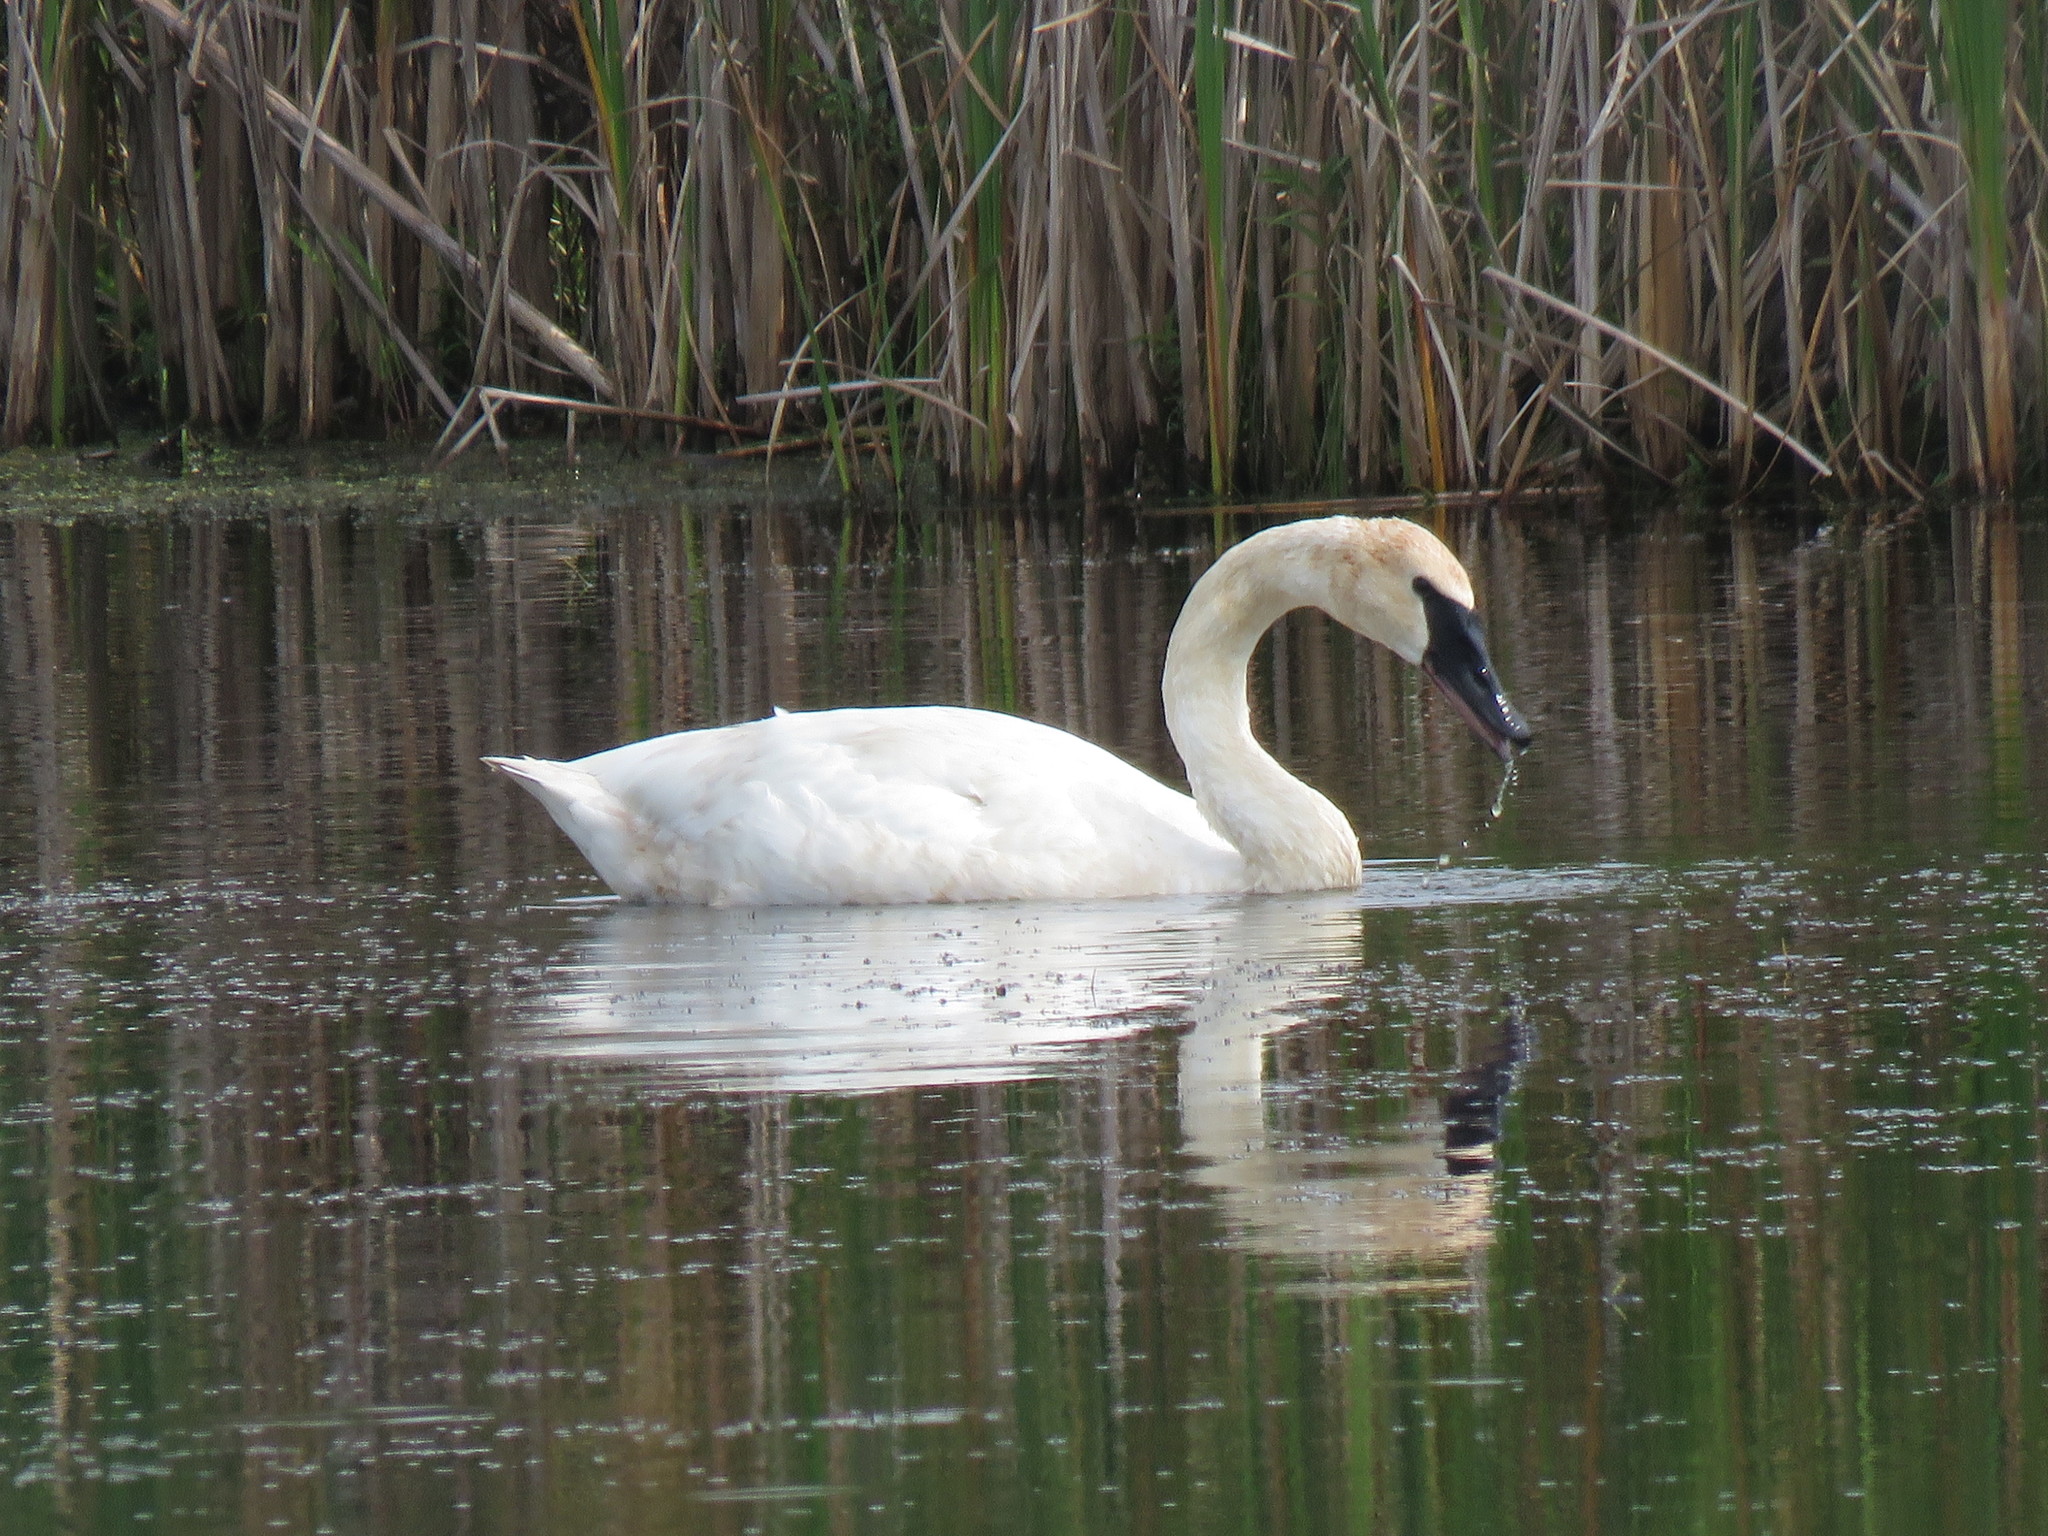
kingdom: Animalia
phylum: Chordata
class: Aves
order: Anseriformes
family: Anatidae
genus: Cygnus
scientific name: Cygnus buccinator
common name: Trumpeter swan
